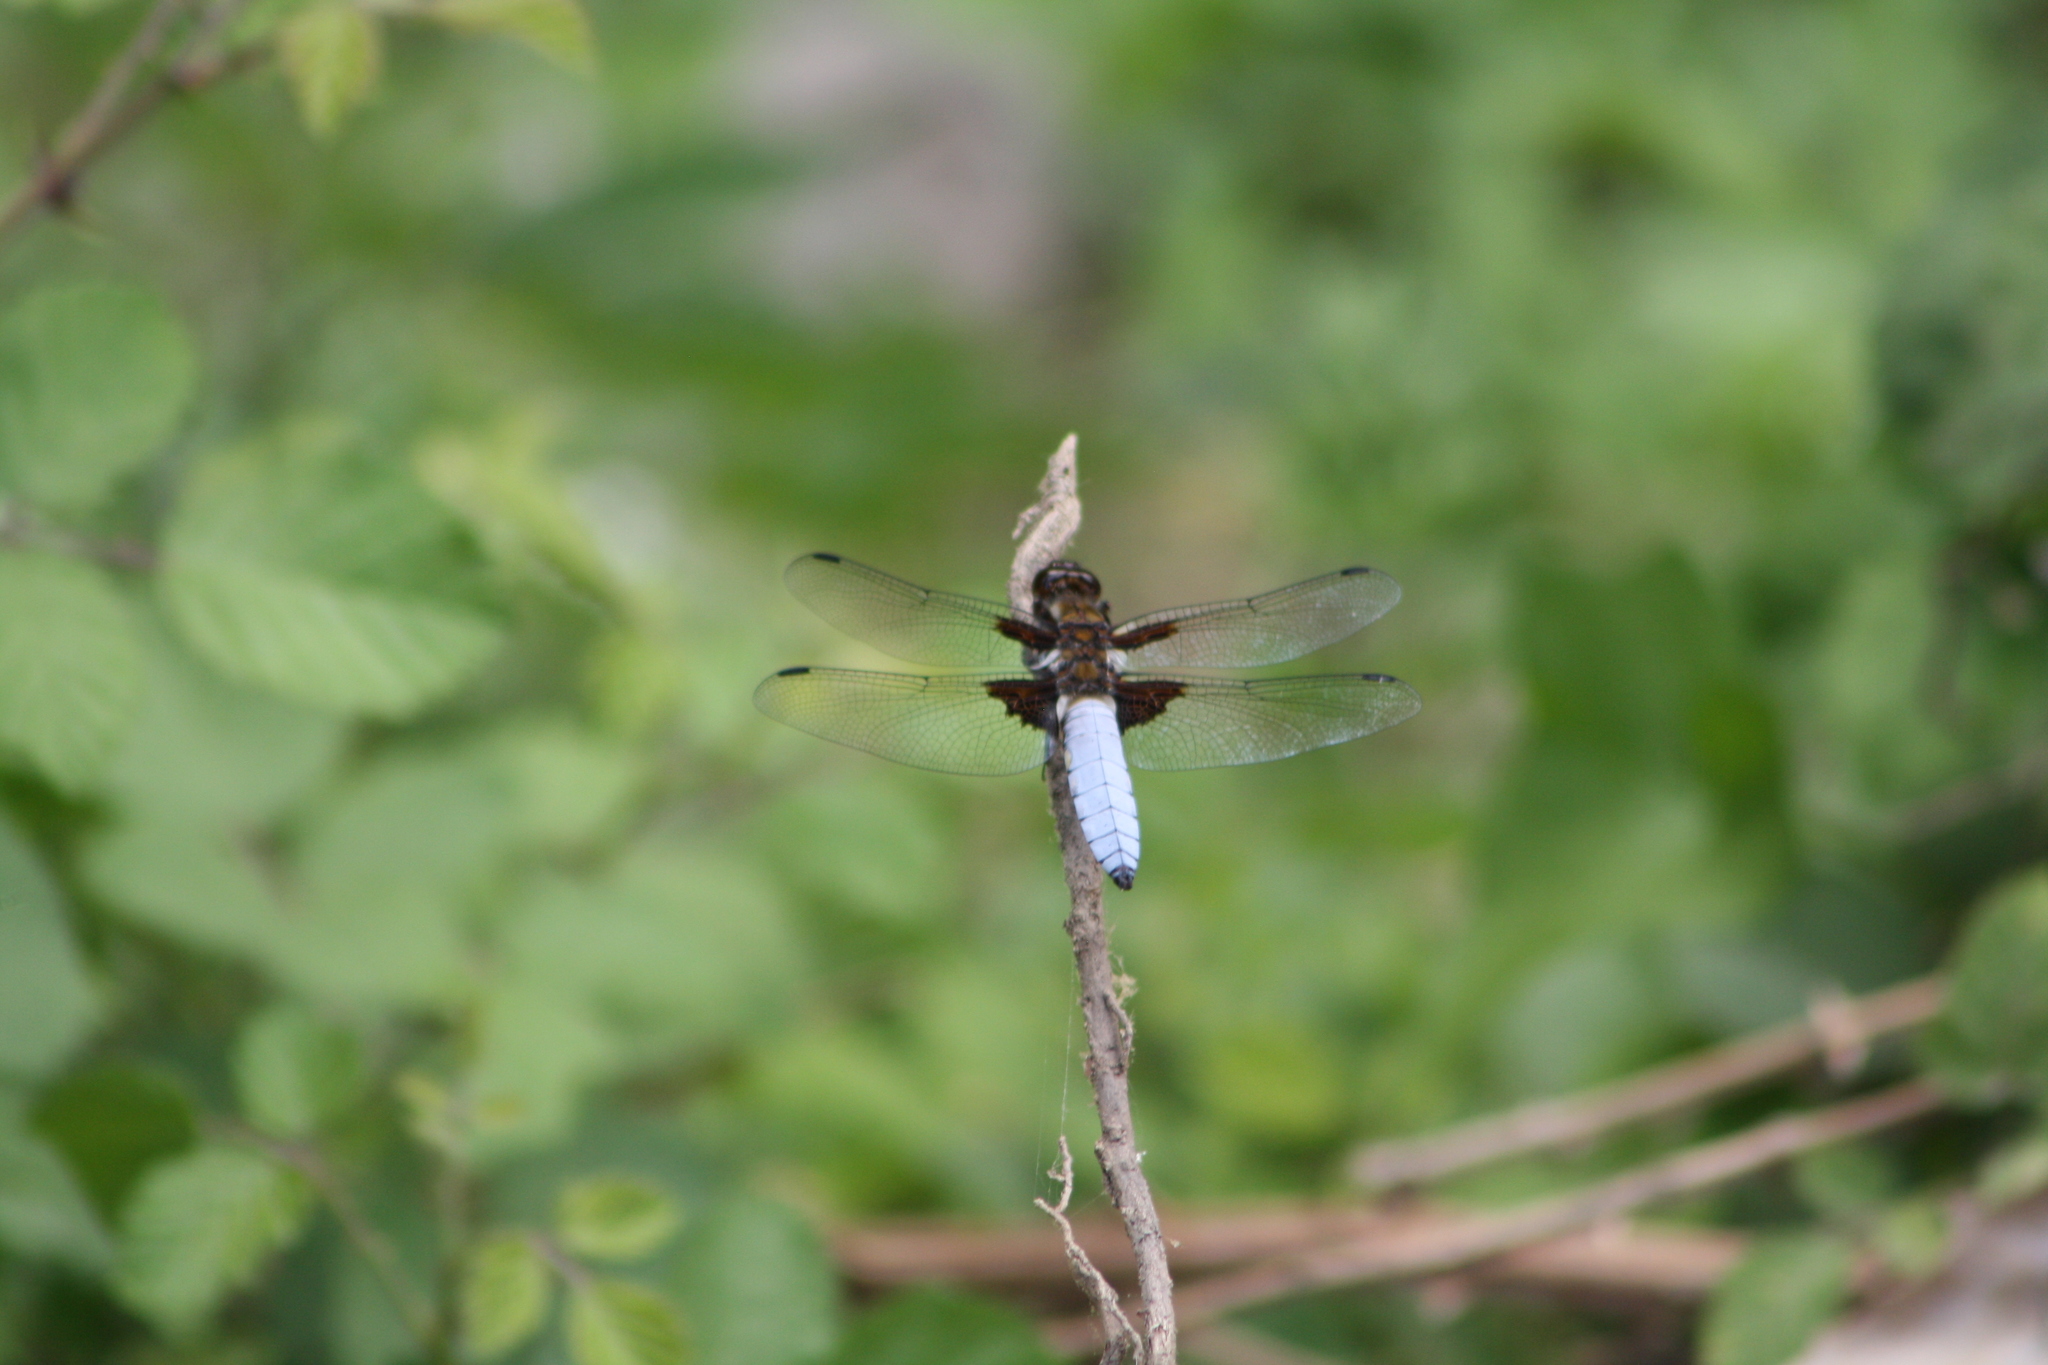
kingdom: Animalia
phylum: Arthropoda
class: Insecta
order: Odonata
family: Libellulidae
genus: Libellula
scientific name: Libellula depressa
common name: Broad-bodied chaser
